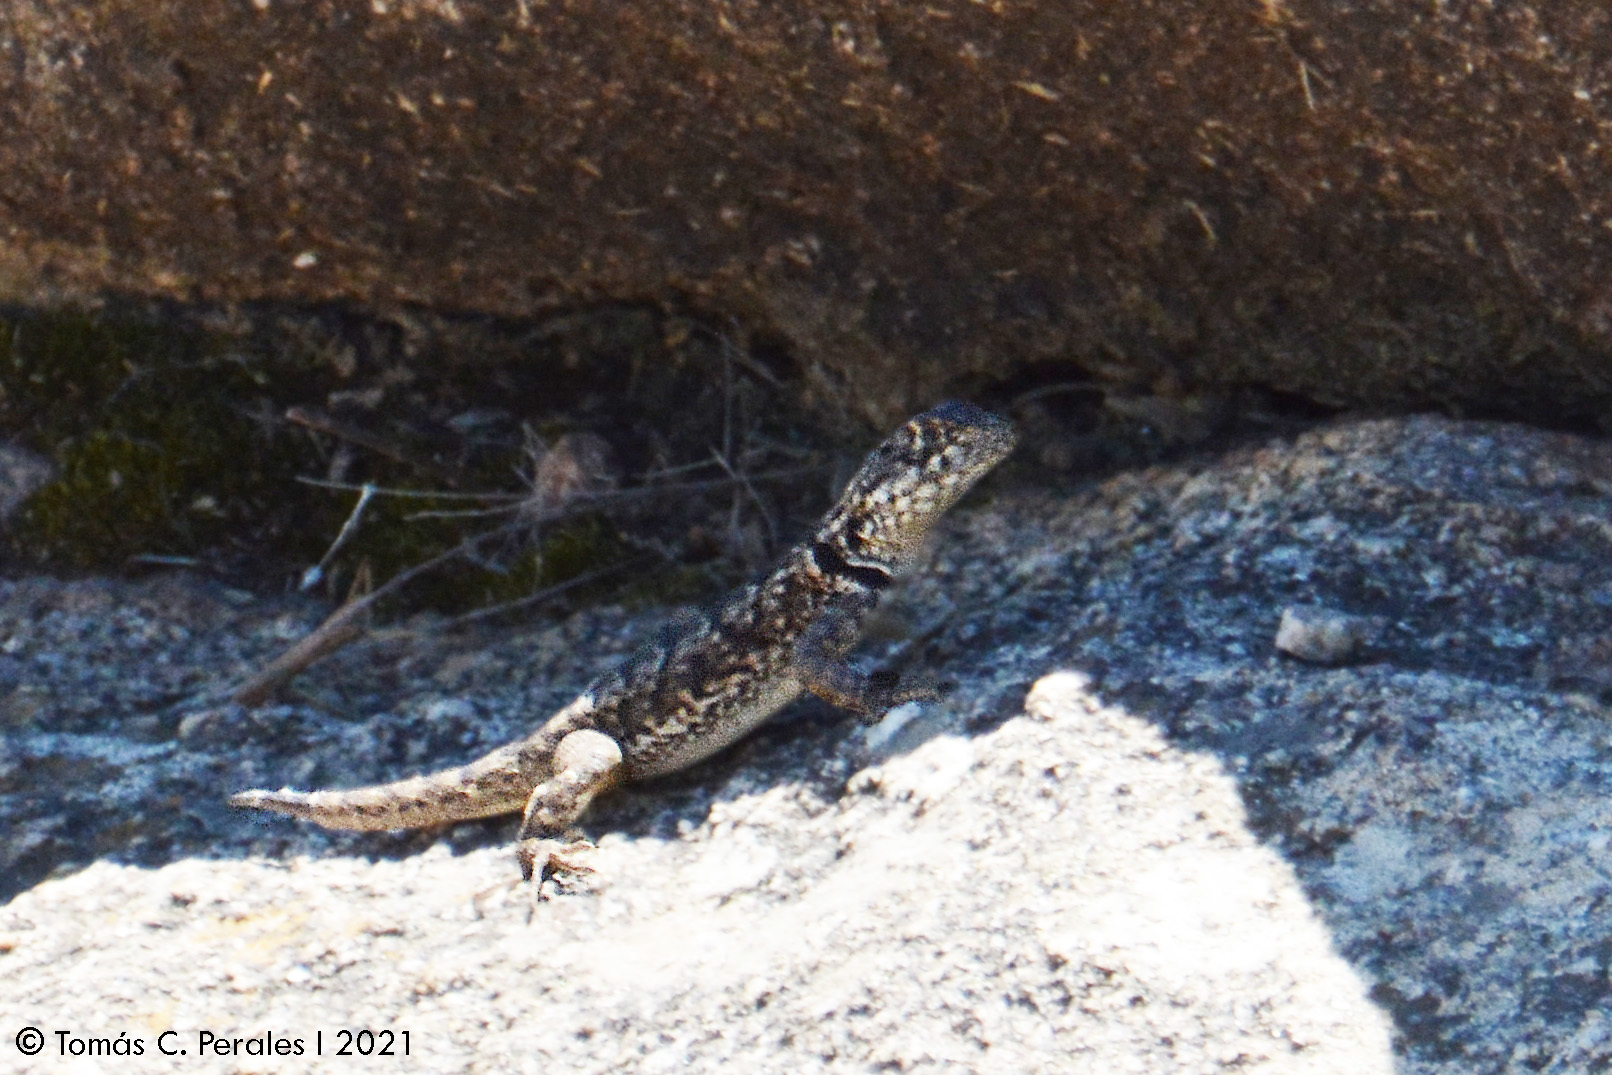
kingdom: Animalia
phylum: Chordata
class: Squamata
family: Tropiduridae
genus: Tropidurus
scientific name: Tropidurus etheridgei
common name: Etheridge's lava lizard
